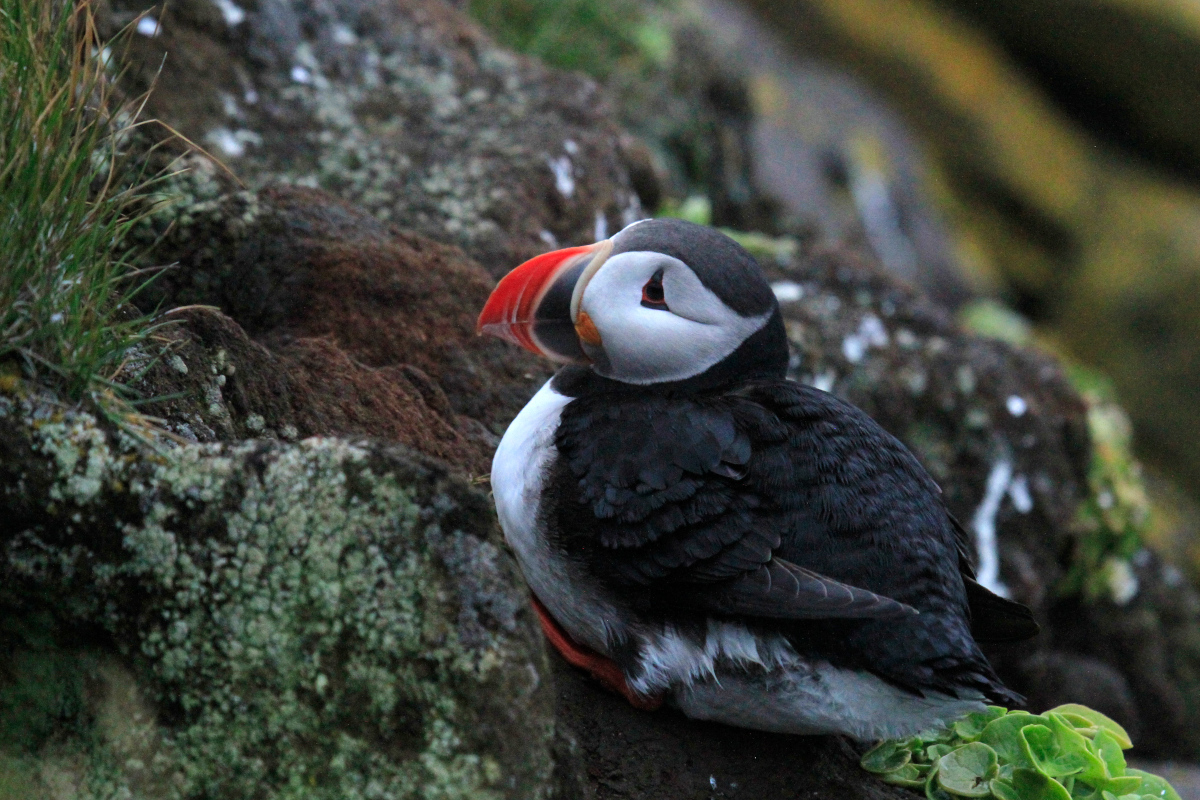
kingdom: Animalia
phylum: Chordata
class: Aves
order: Charadriiformes
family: Alcidae
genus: Fratercula
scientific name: Fratercula arctica
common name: Atlantic puffin
